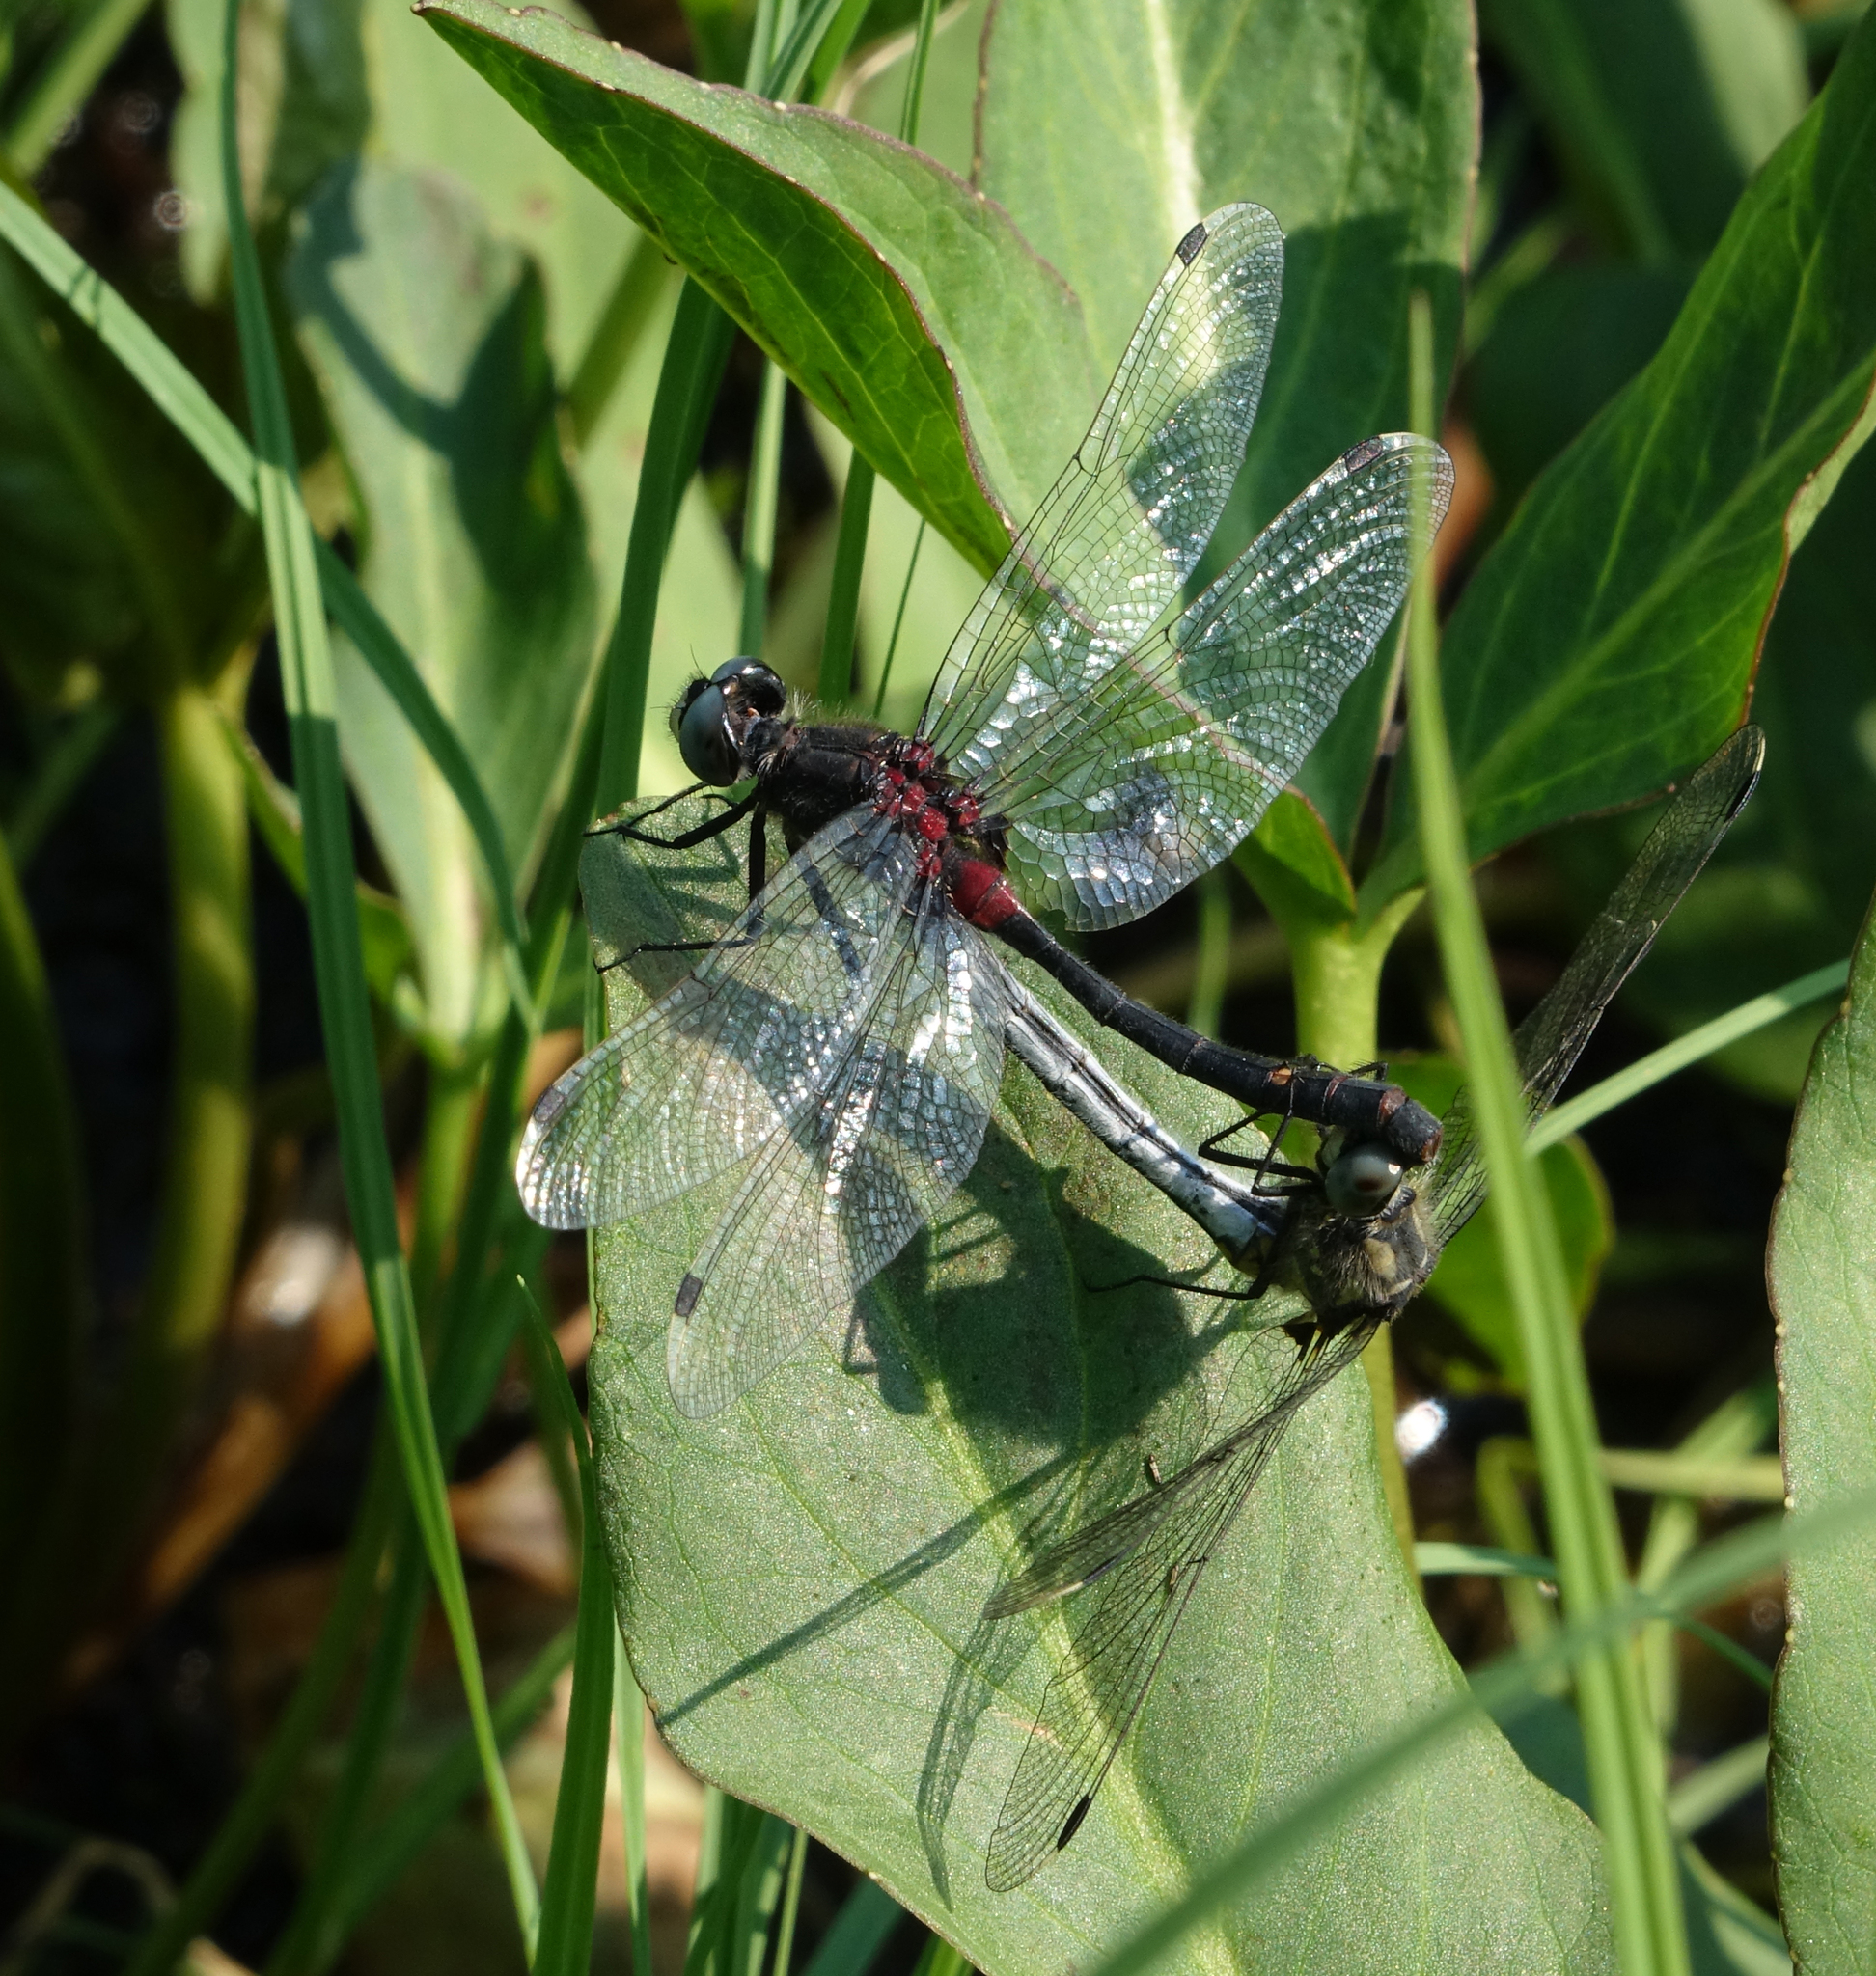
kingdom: Animalia
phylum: Arthropoda
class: Insecta
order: Odonata
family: Libellulidae
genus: Leucorrhinia
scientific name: Leucorrhinia orientalis
